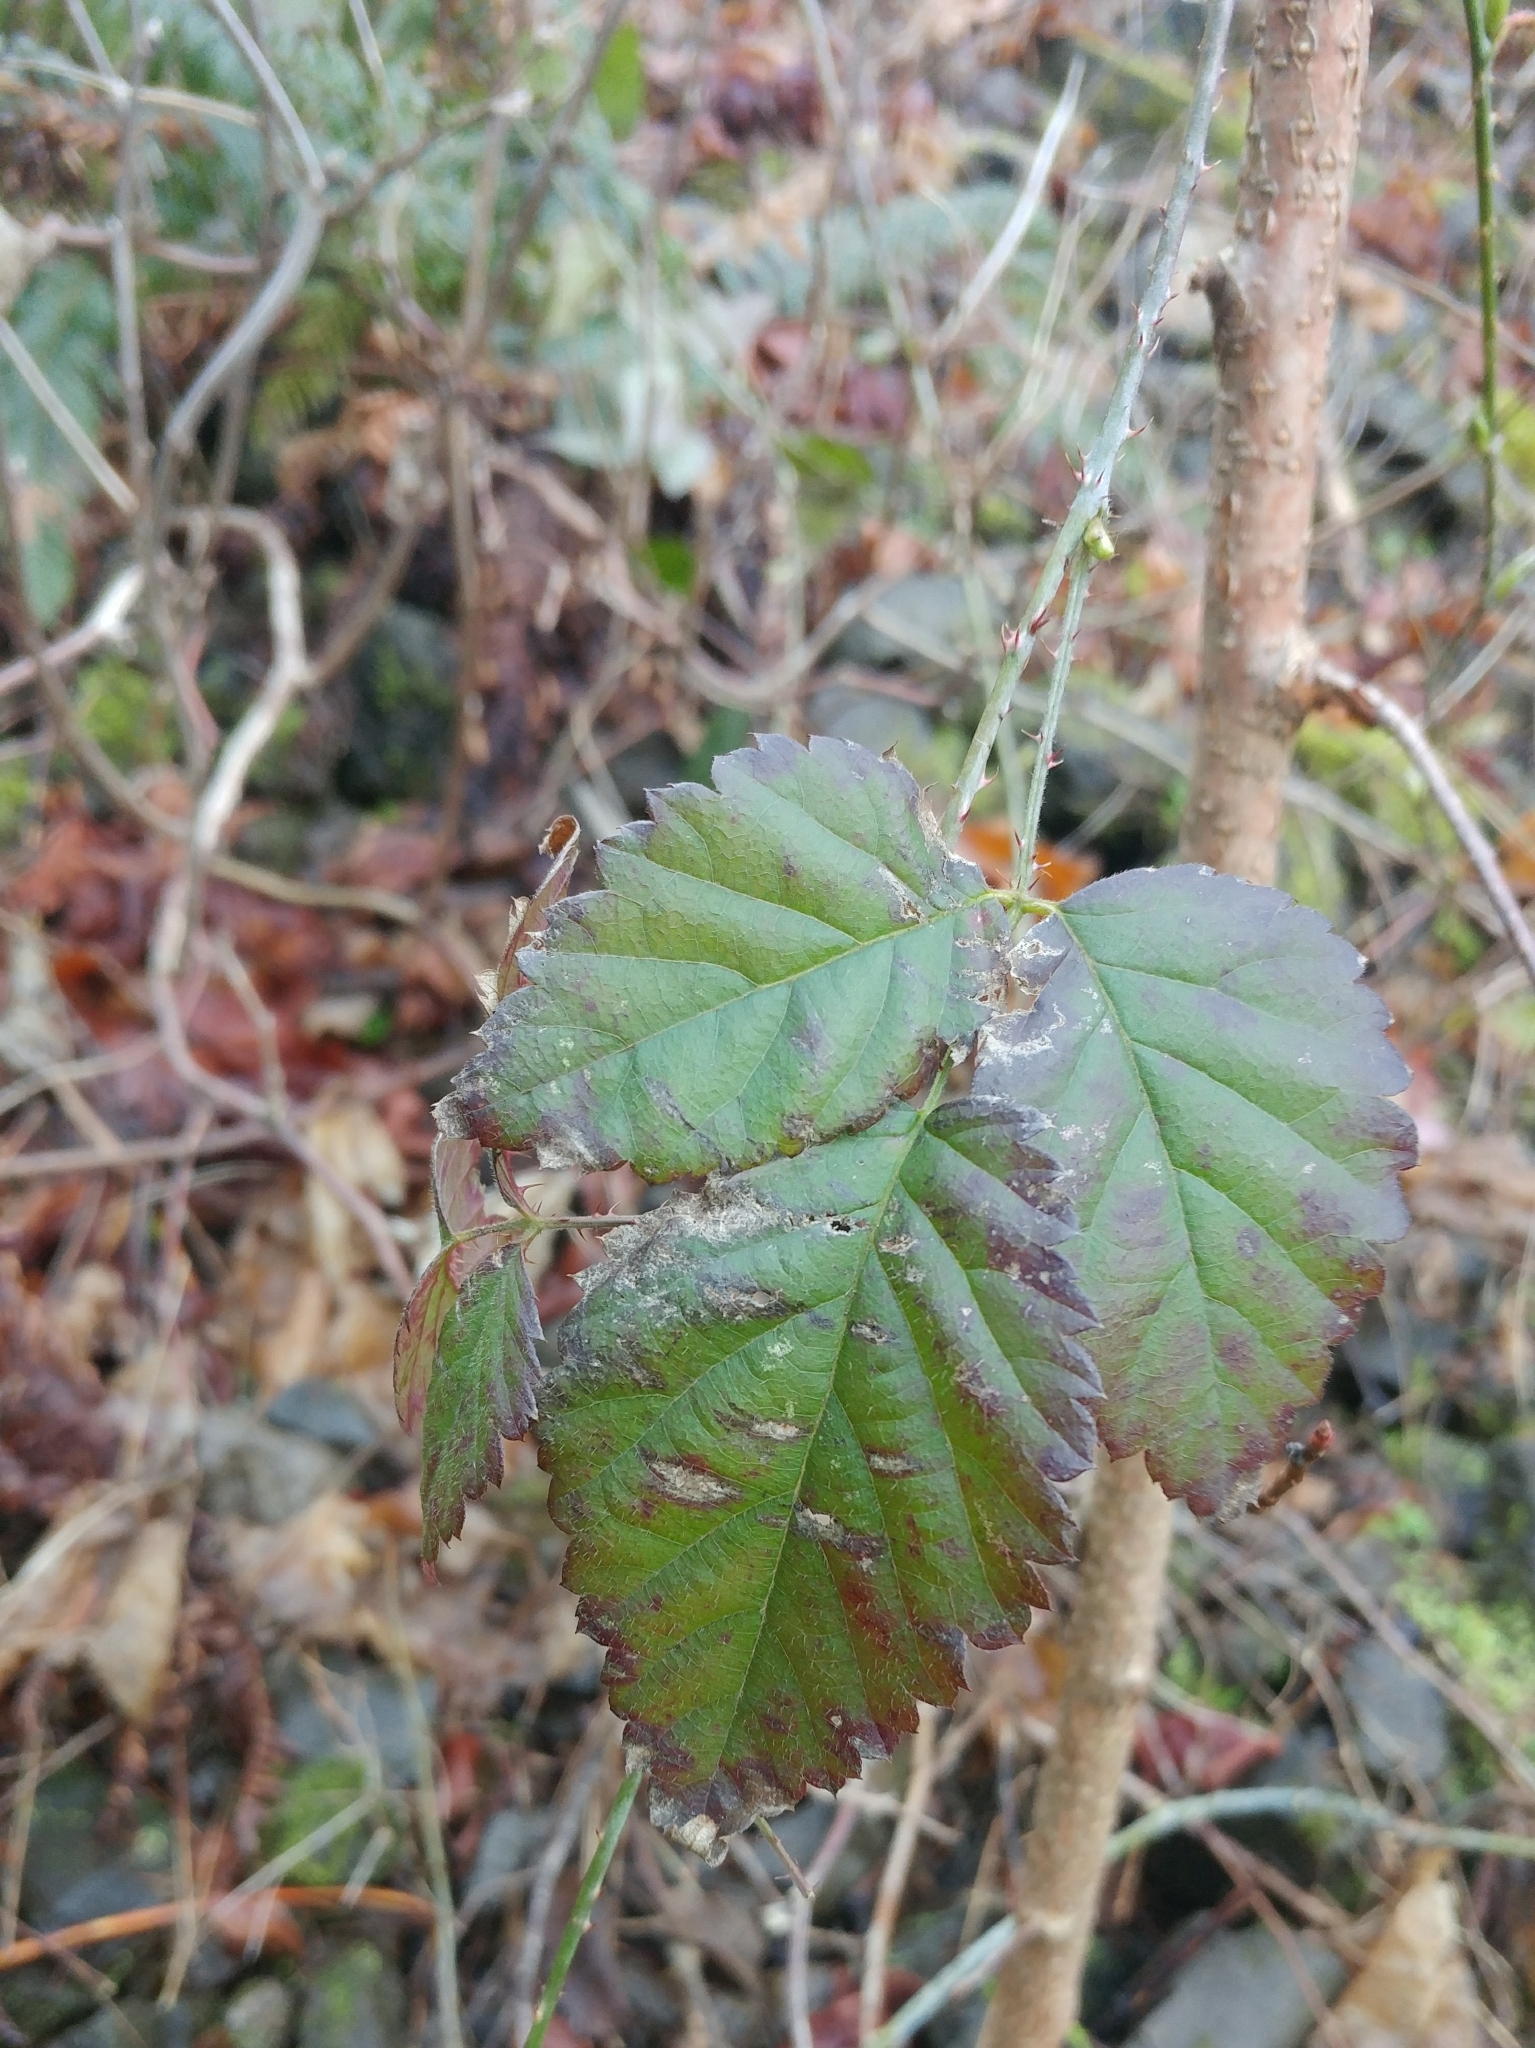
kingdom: Plantae
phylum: Tracheophyta
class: Magnoliopsida
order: Rosales
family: Rosaceae
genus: Rubus
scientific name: Rubus ursinus
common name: Pacific blackberry
